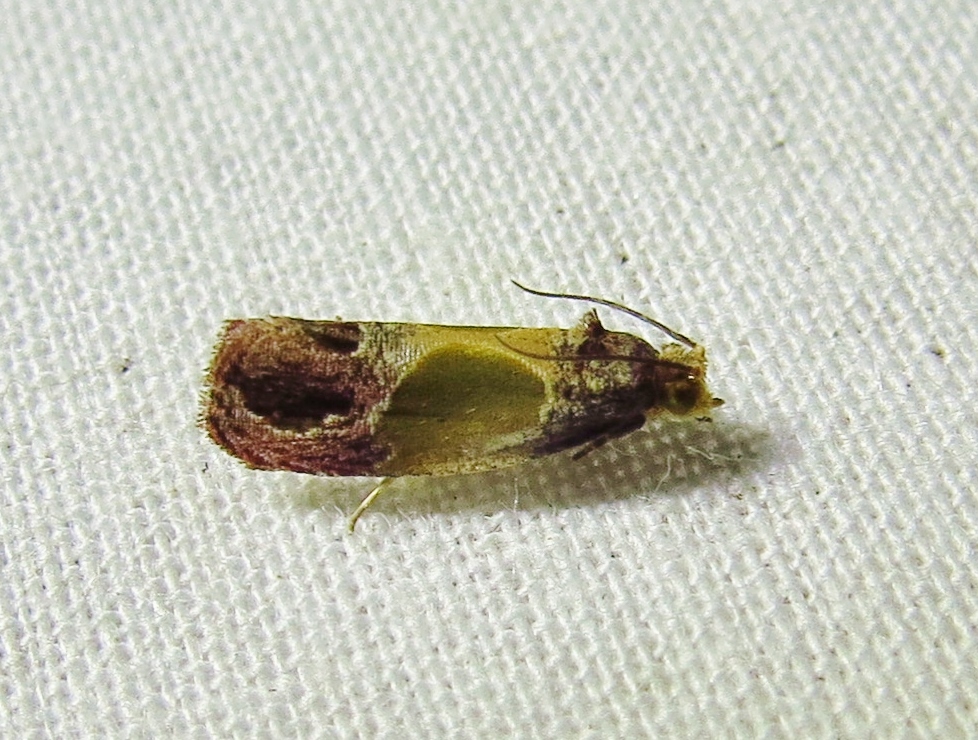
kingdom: Animalia
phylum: Arthropoda
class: Insecta
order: Lepidoptera
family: Tortricidae
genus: Eumarozia
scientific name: Eumarozia malachitana
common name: Sculptured moth
